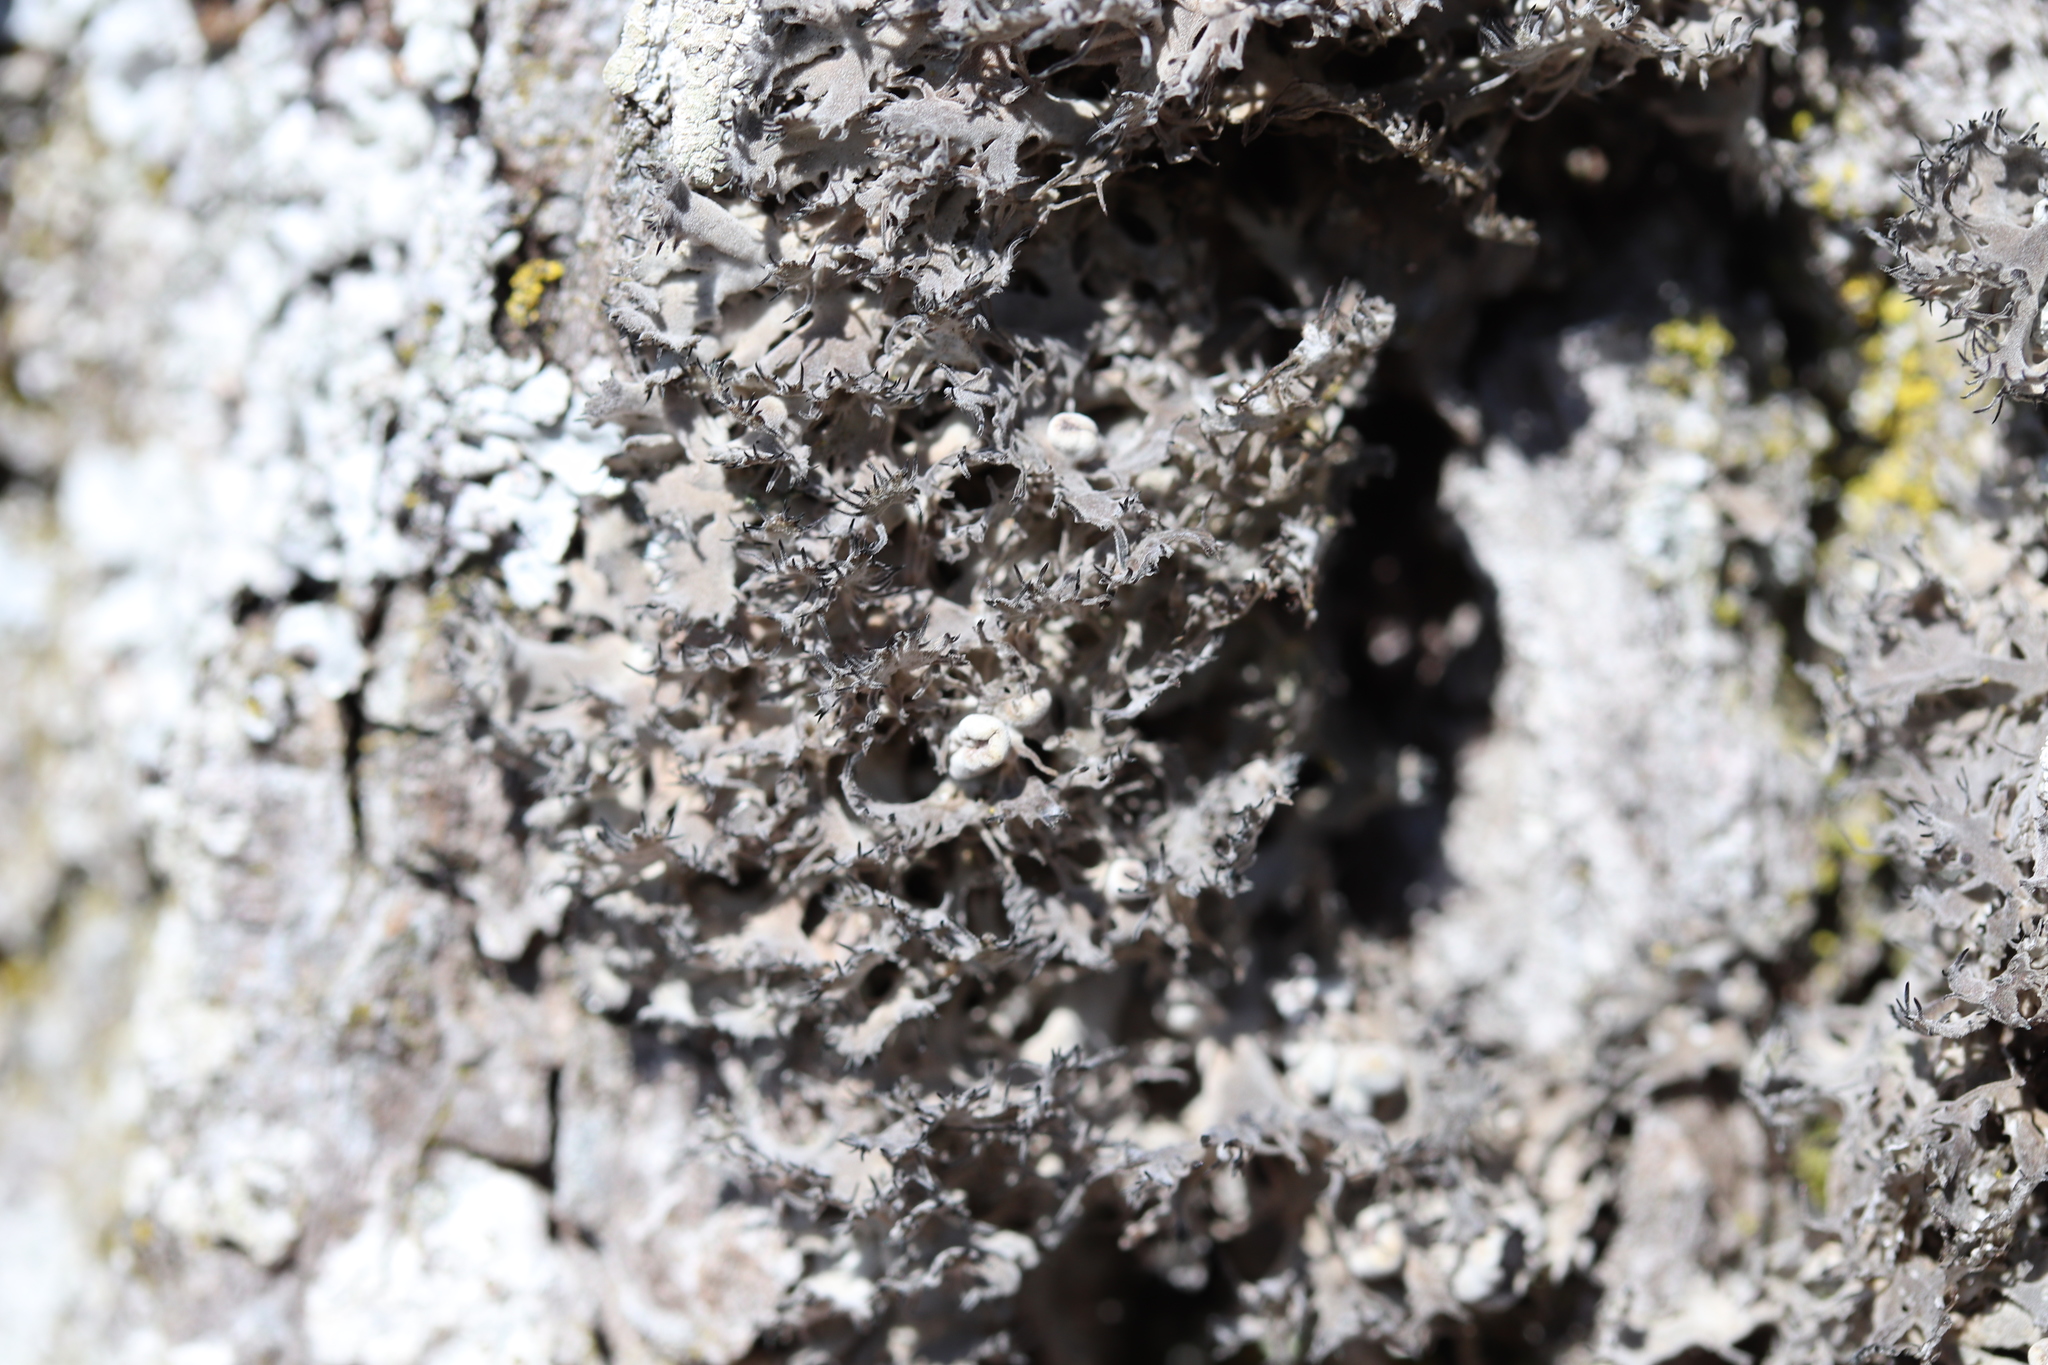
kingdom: Fungi
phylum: Ascomycota
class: Lecanoromycetes
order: Caliciales
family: Physciaceae
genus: Anaptychia
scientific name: Anaptychia ciliaris
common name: Great ciliated lichen
